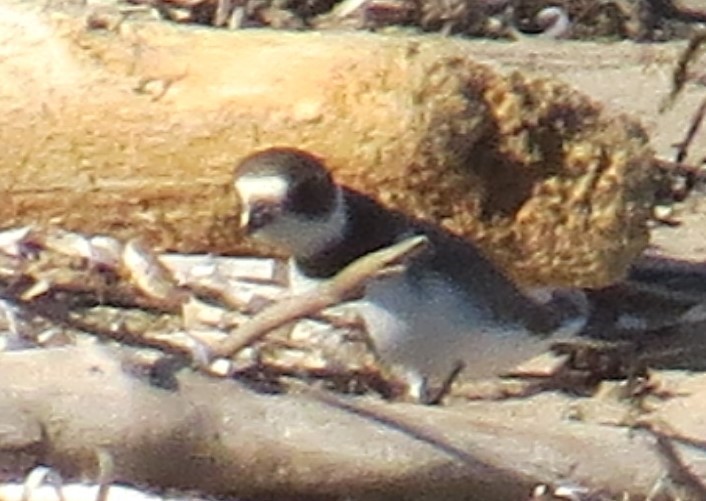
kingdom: Animalia
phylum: Chordata
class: Aves
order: Charadriiformes
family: Charadriidae
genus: Charadrius
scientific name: Charadrius semipalmatus
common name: Semipalmated plover
